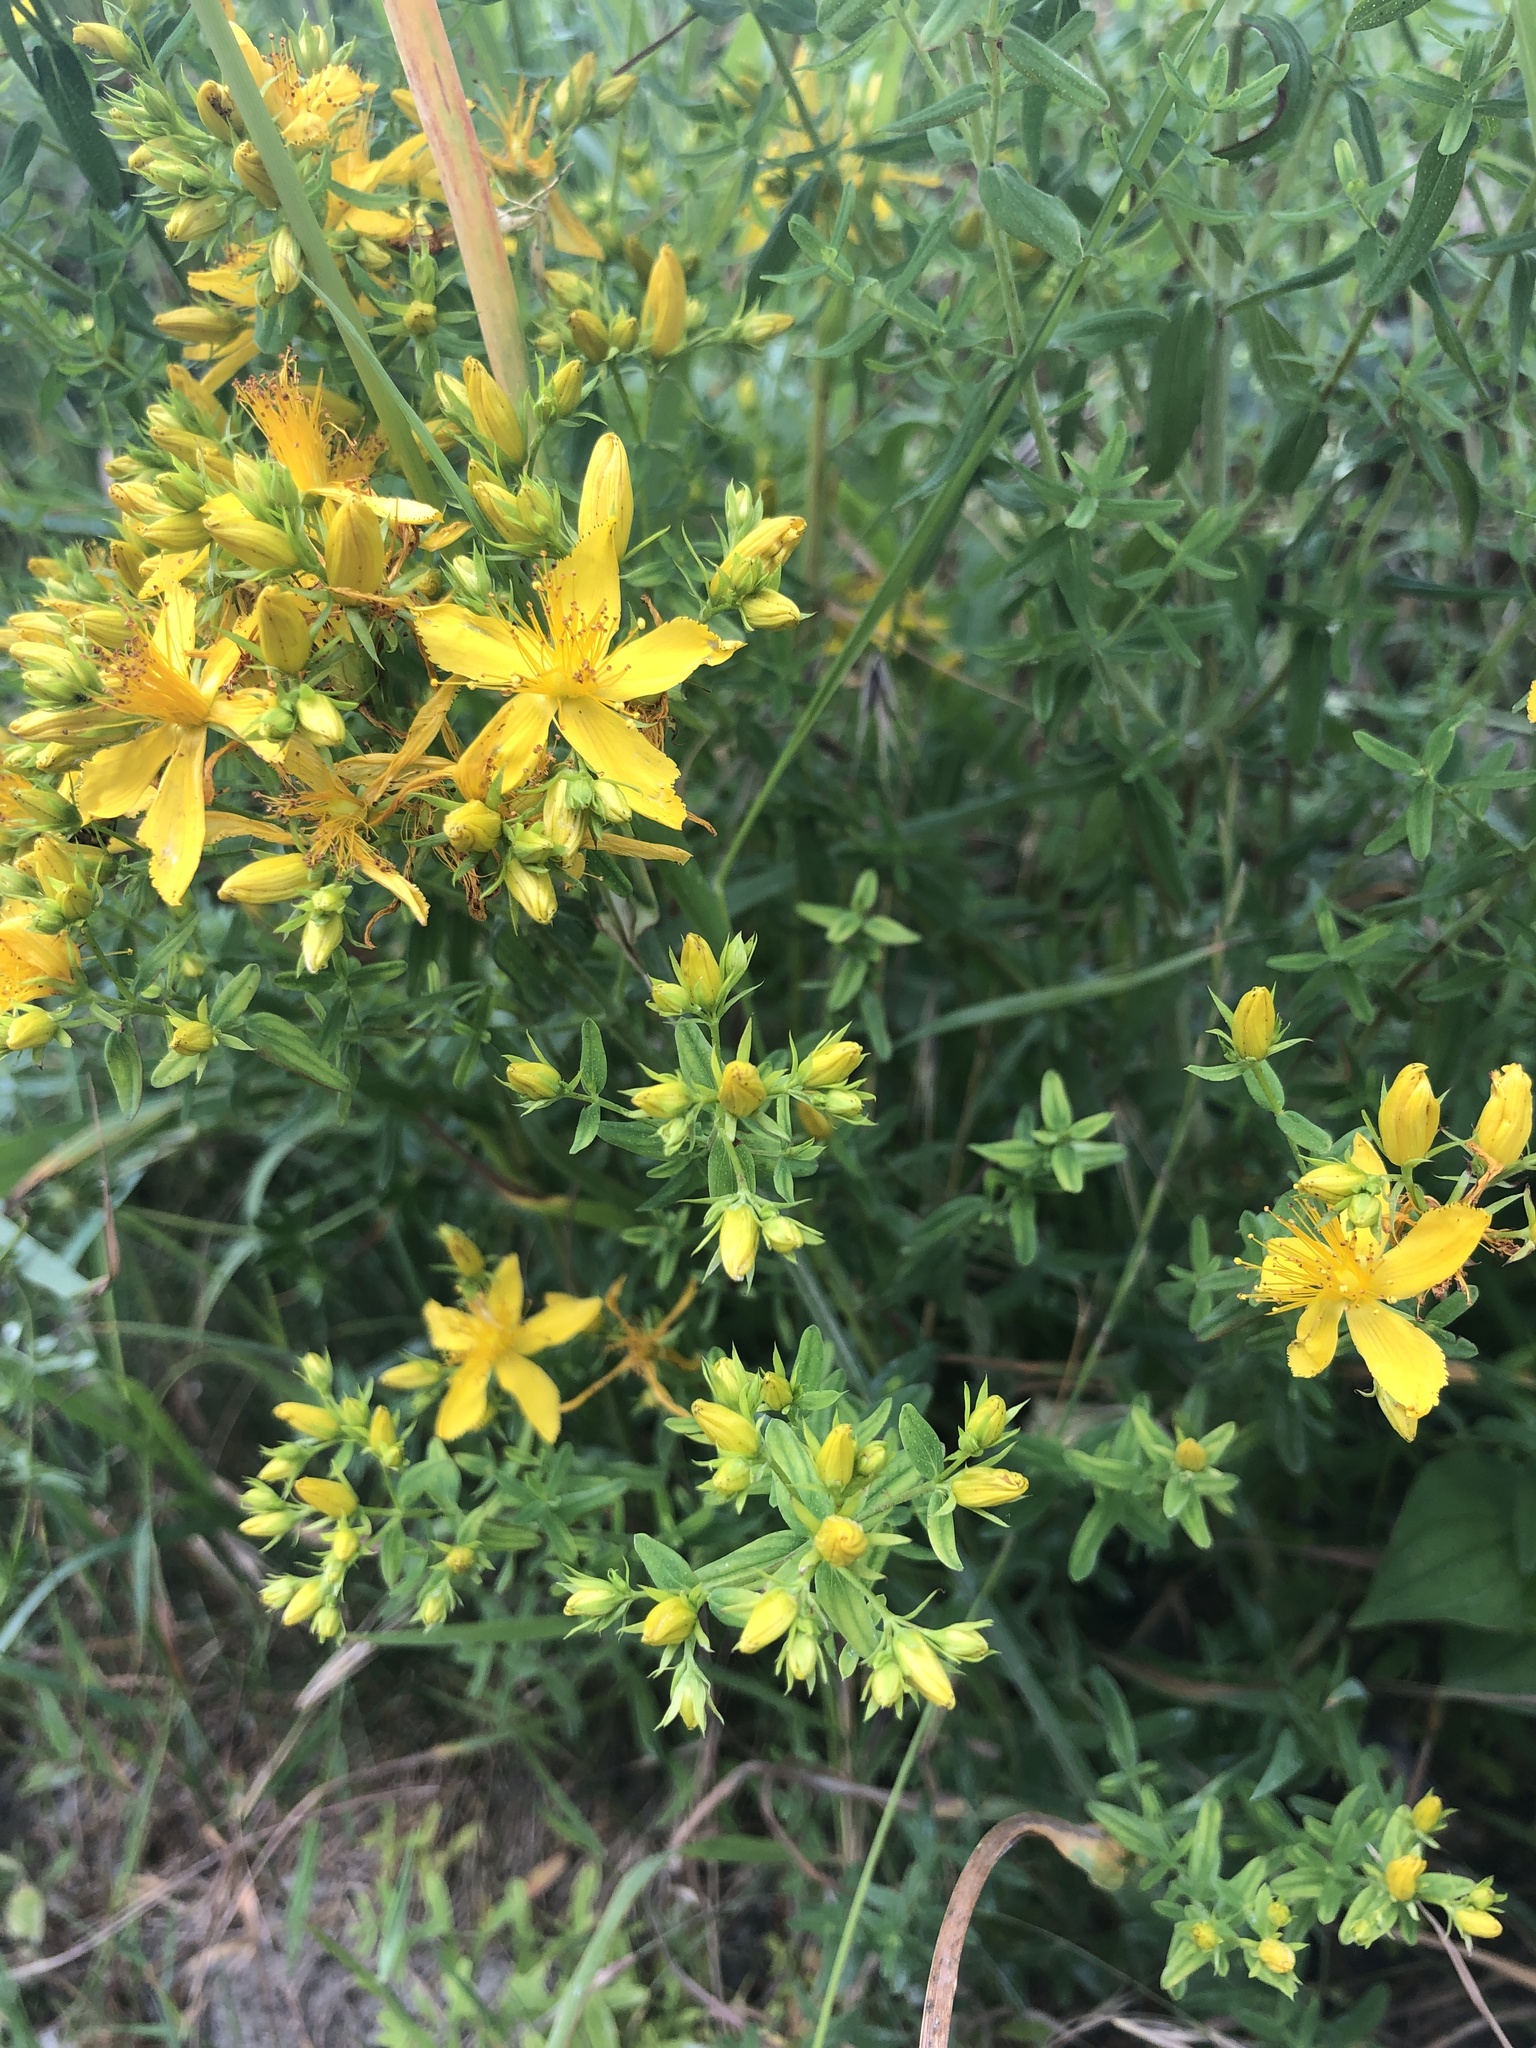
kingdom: Plantae
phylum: Tracheophyta
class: Magnoliopsida
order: Malpighiales
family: Hypericaceae
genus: Hypericum
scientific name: Hypericum perforatum
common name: Common st. johnswort
